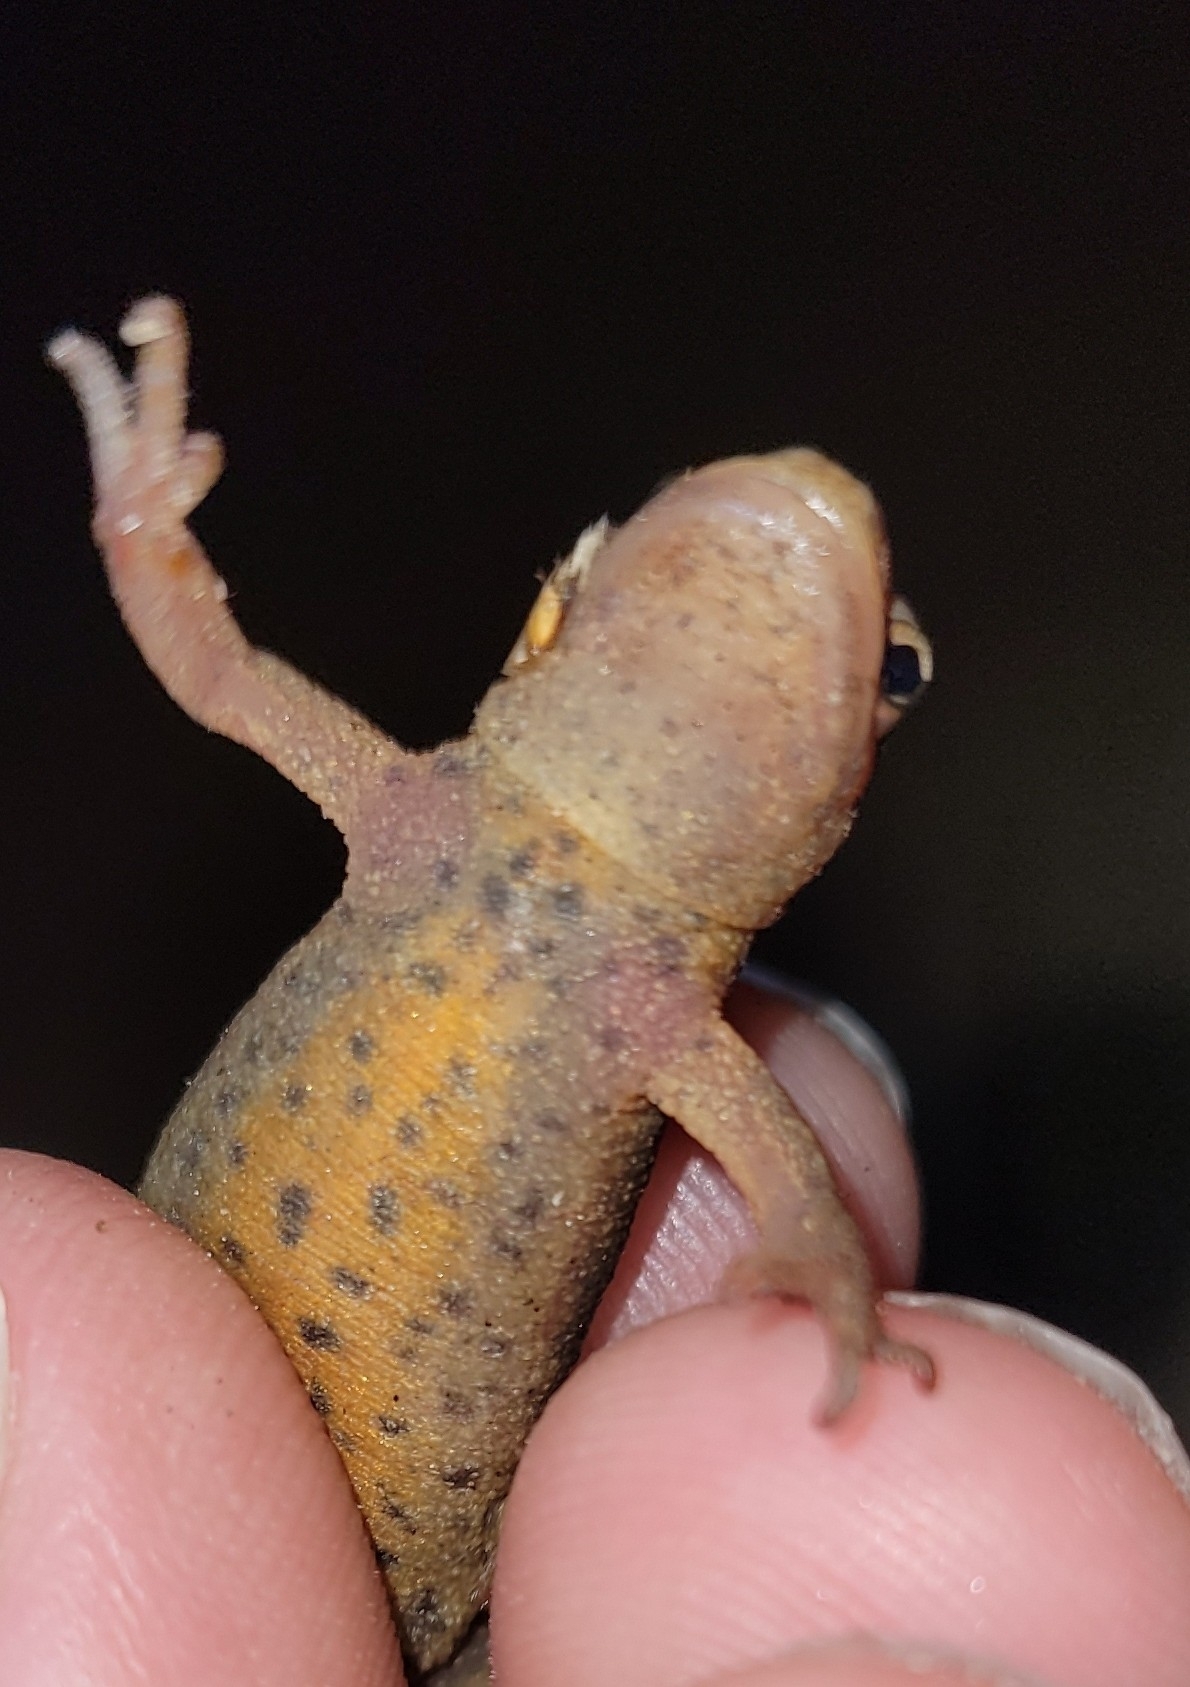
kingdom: Animalia
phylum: Chordata
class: Amphibia
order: Caudata
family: Salamandridae
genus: Lissotriton
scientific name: Lissotriton vulgaris
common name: Smooth newt
